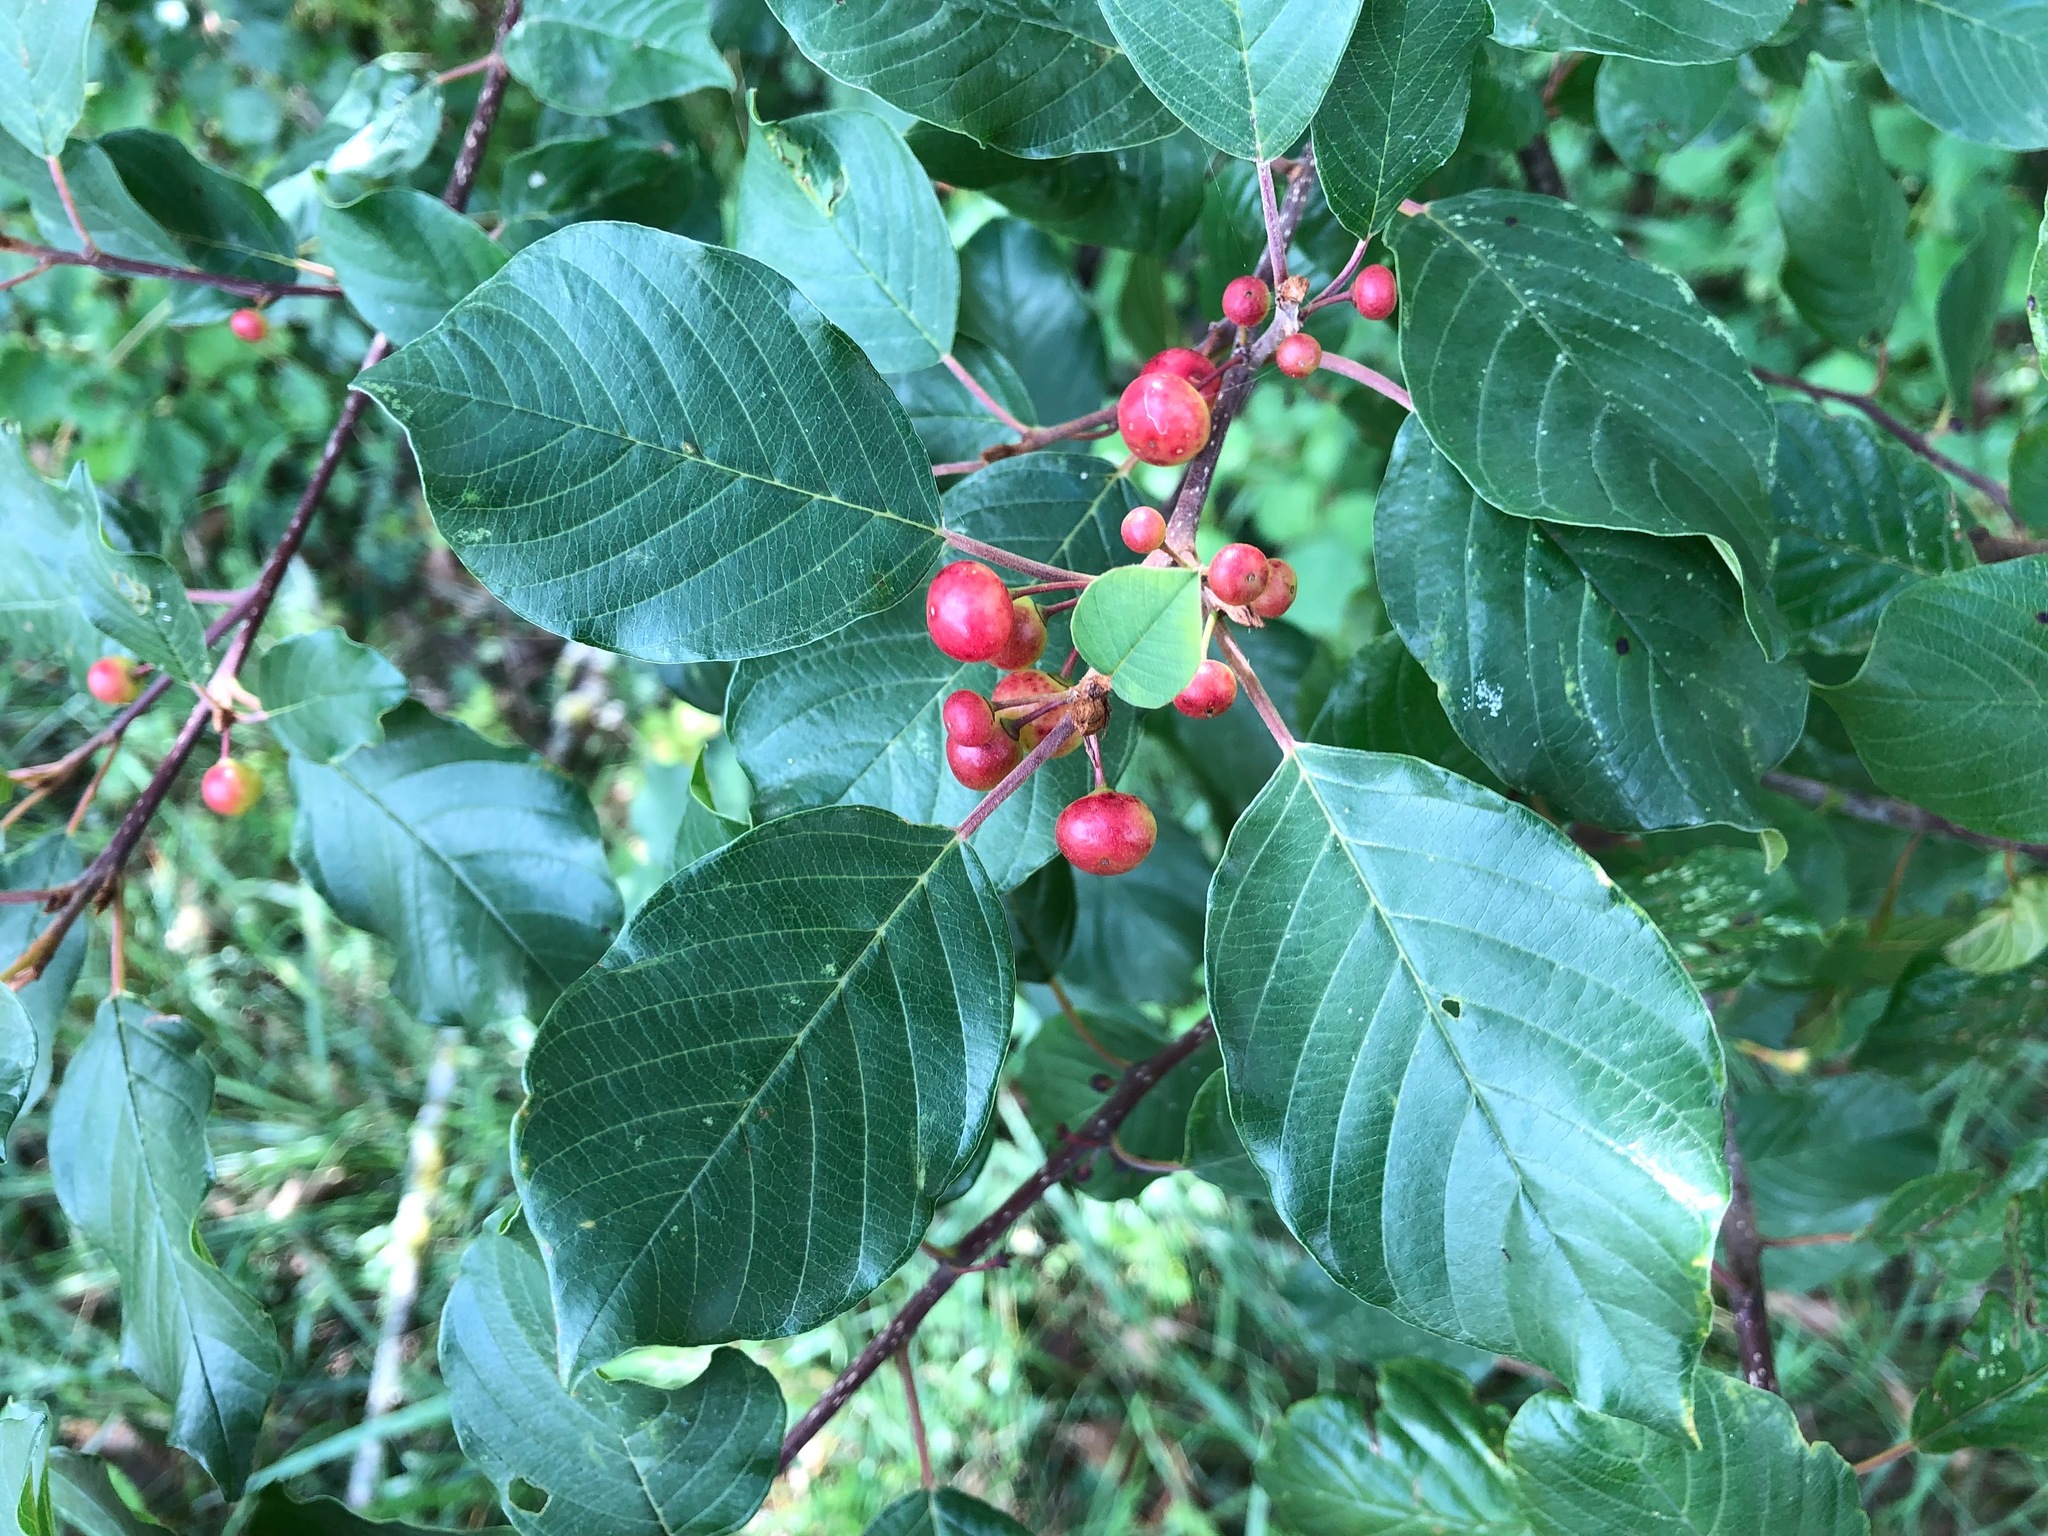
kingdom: Plantae
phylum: Tracheophyta
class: Magnoliopsida
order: Rosales
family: Rhamnaceae
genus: Frangula
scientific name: Frangula alnus
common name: Alder buckthorn
